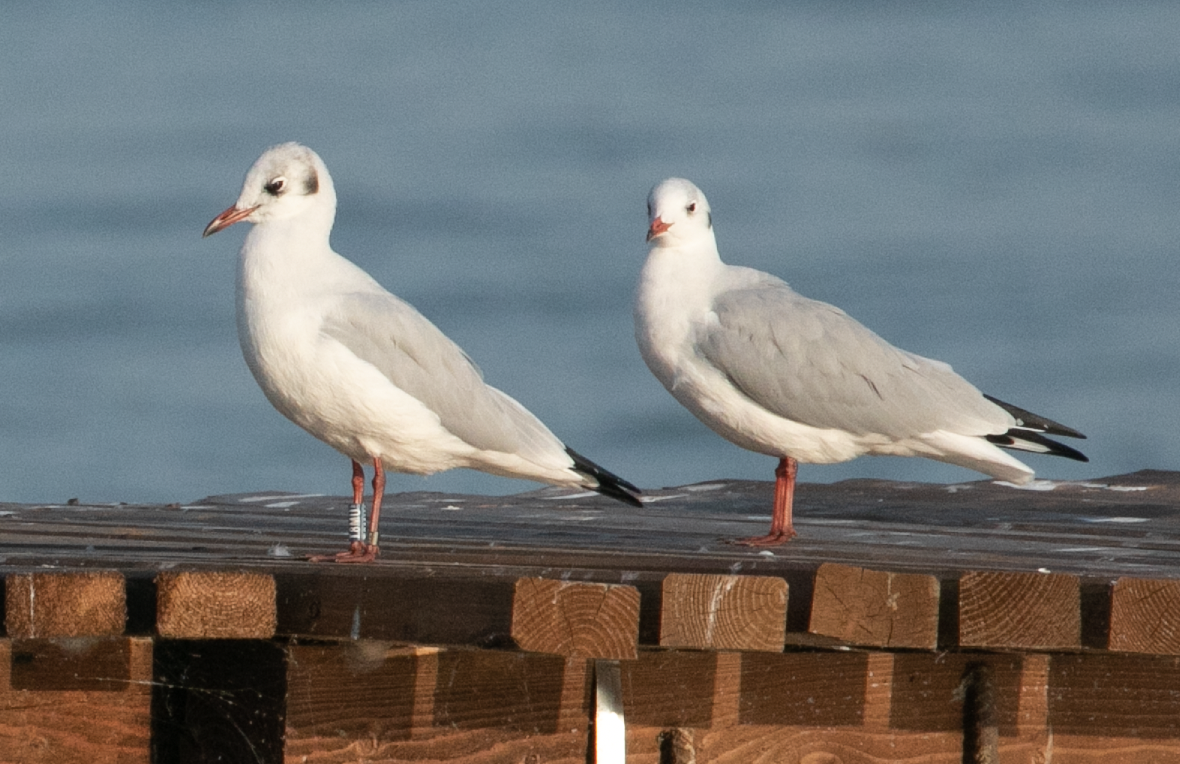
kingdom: Animalia
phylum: Chordata
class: Aves
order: Charadriiformes
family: Laridae
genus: Chroicocephalus
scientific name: Chroicocephalus ridibundus
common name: Black-headed gull
